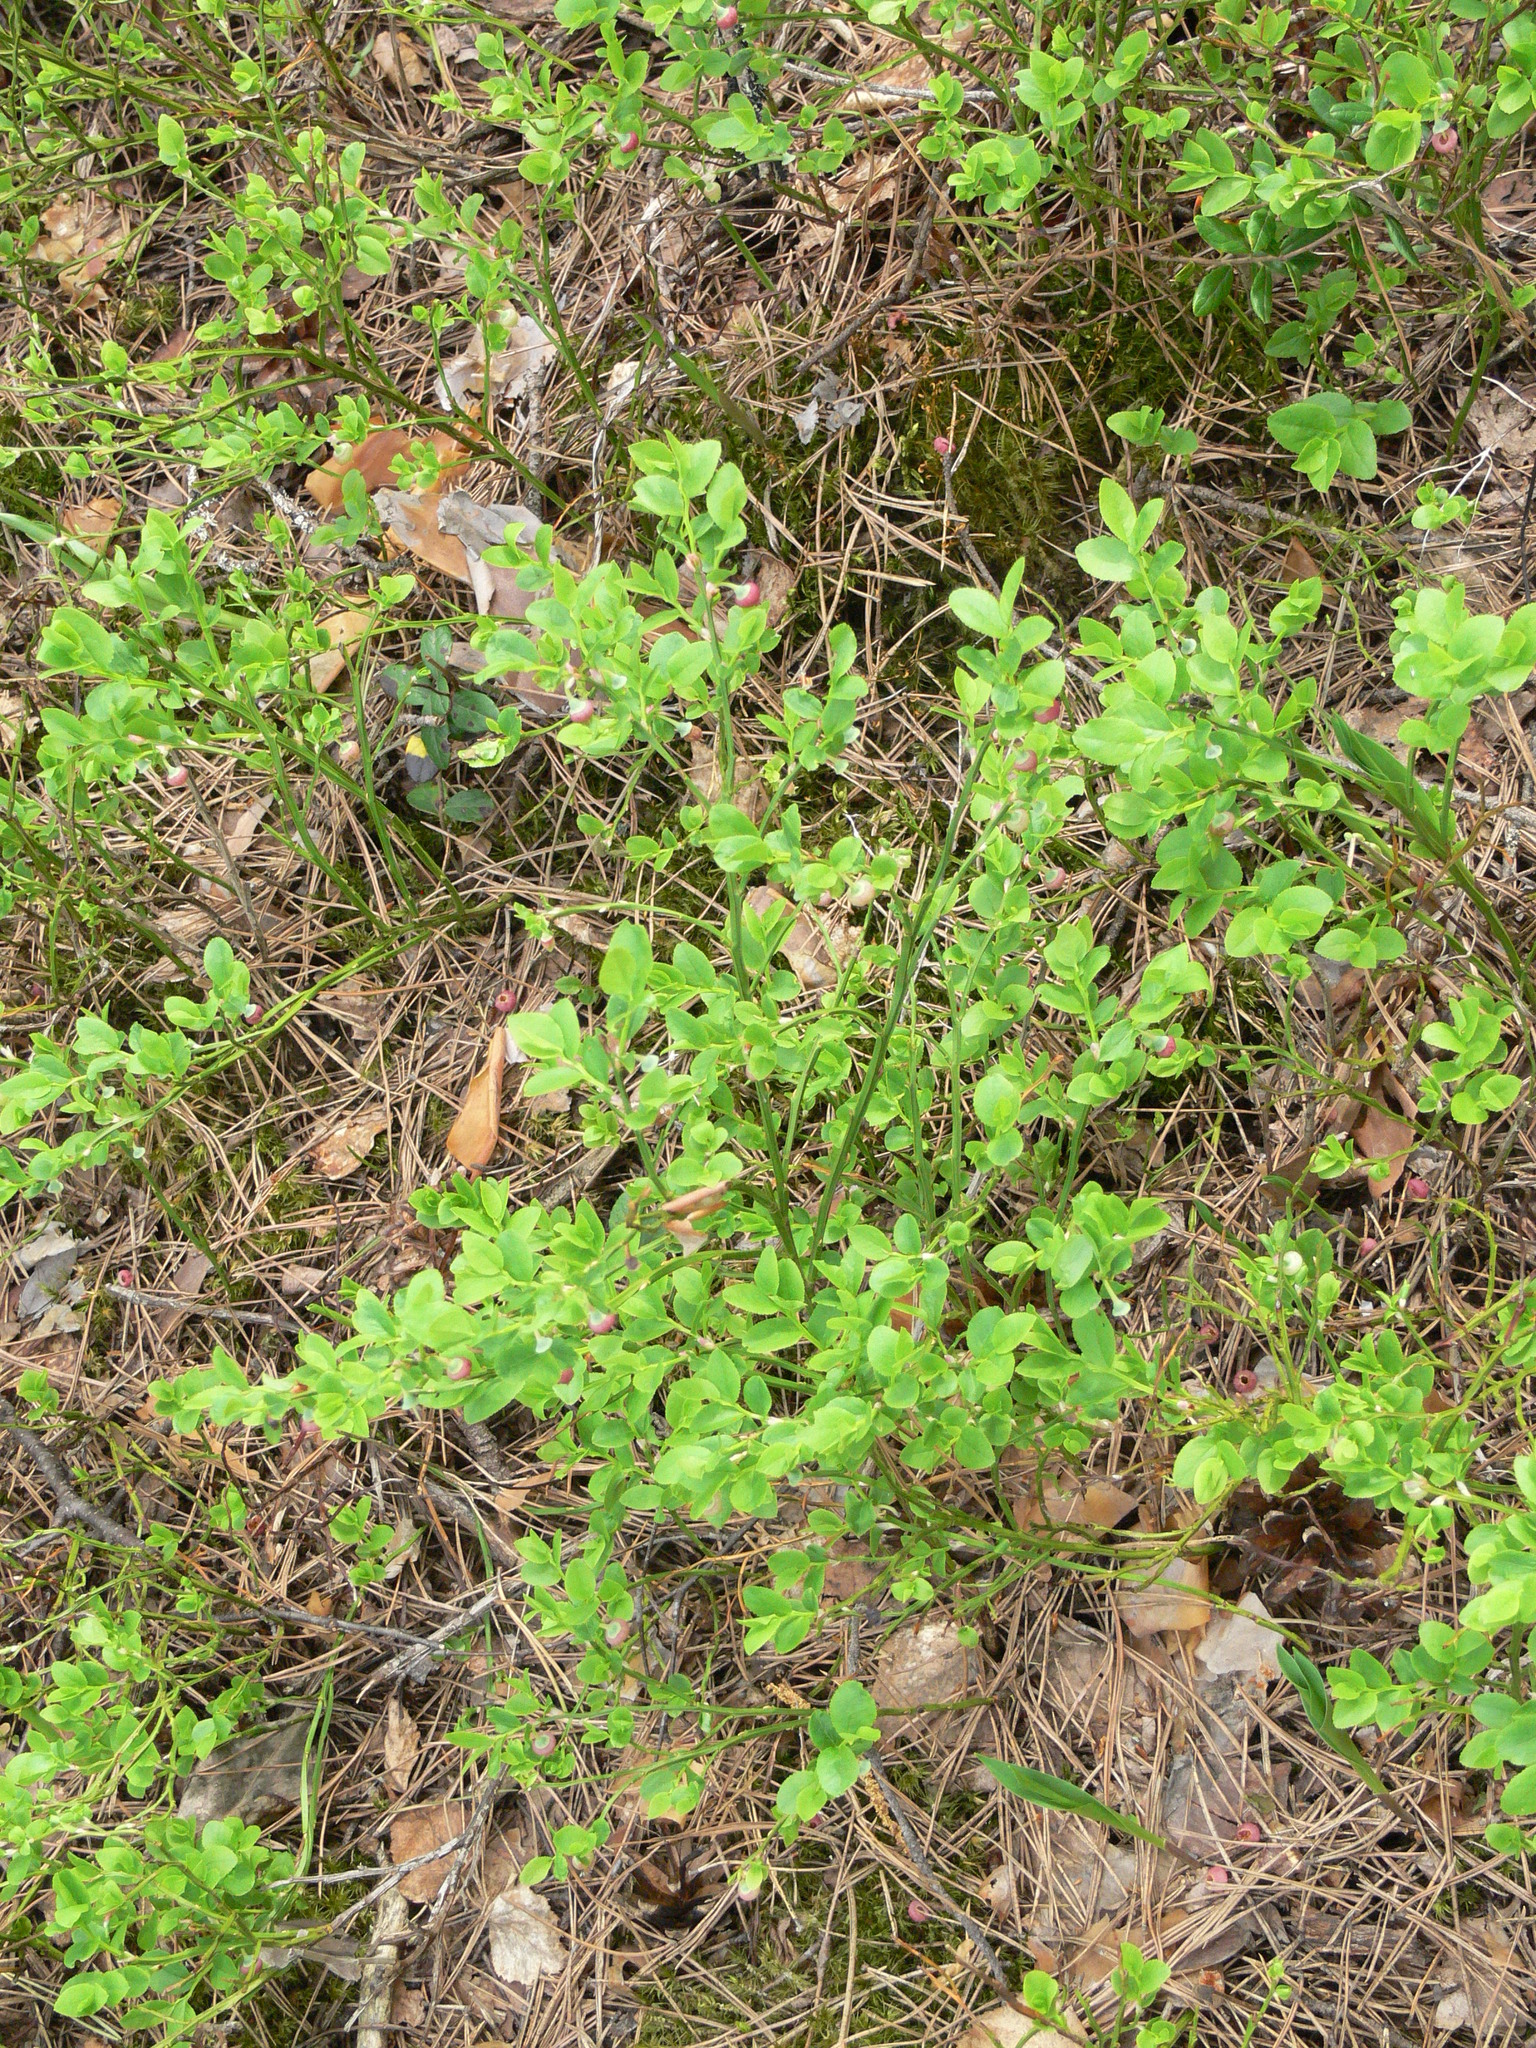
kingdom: Plantae
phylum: Tracheophyta
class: Magnoliopsida
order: Ericales
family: Ericaceae
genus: Vaccinium
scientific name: Vaccinium myrtillus
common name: Bilberry
